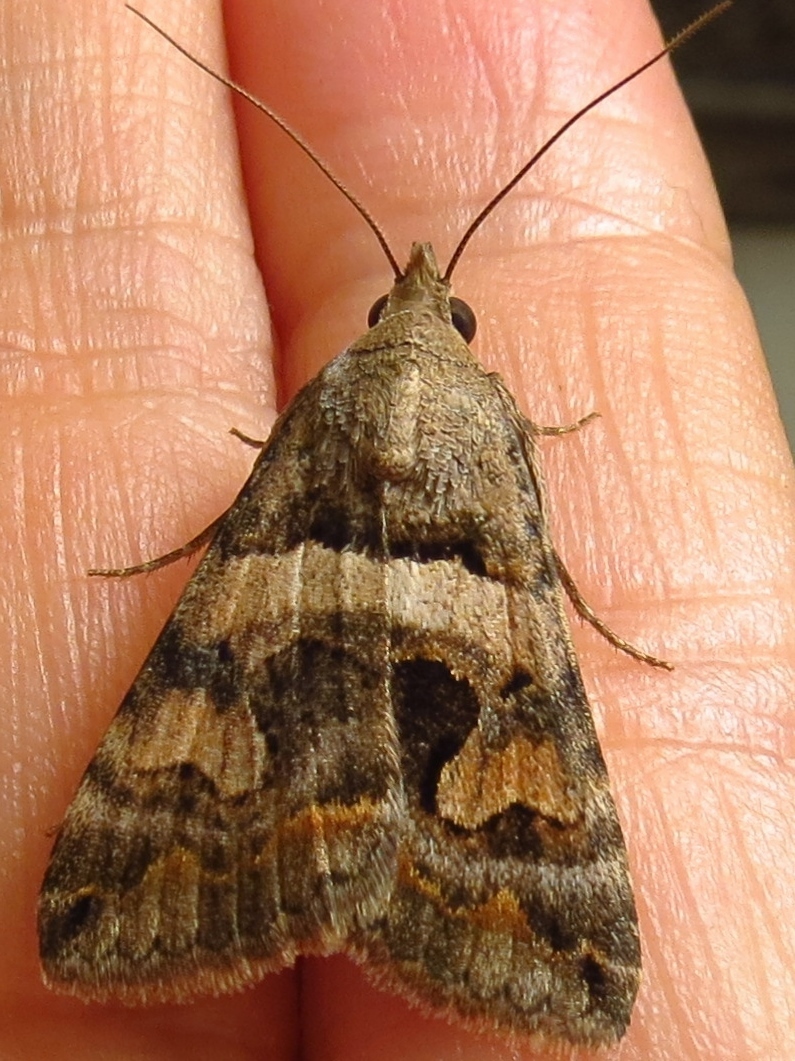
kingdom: Animalia
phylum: Arthropoda
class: Insecta
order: Lepidoptera
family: Erebidae
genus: Bulia
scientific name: Bulia deducta
